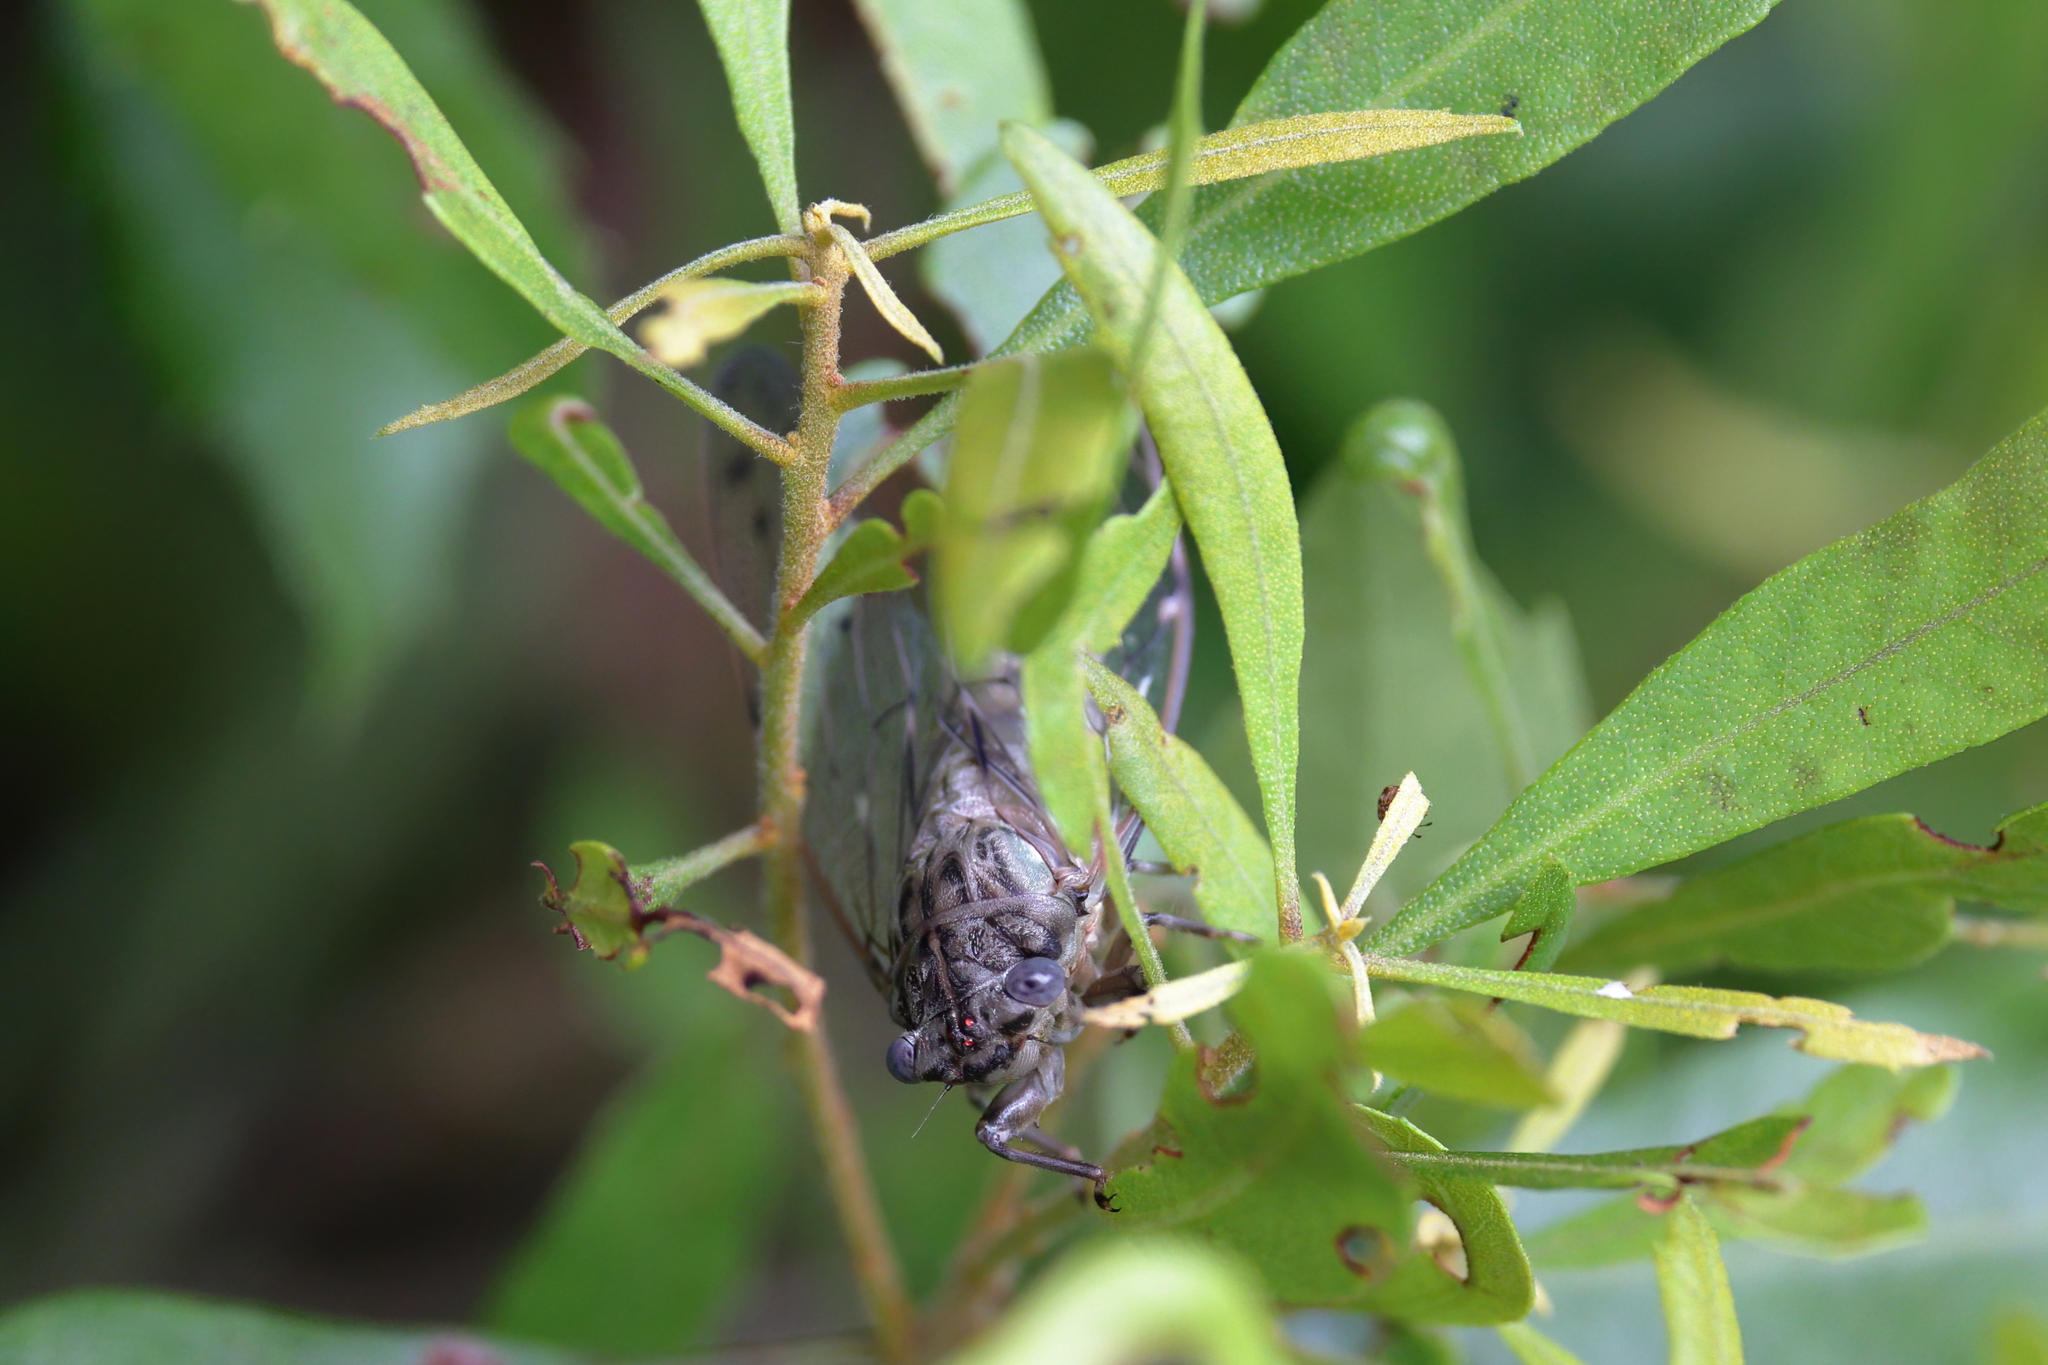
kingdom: Animalia
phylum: Arthropoda
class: Insecta
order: Hemiptera
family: Cicadidae
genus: Neocicada
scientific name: Neocicada hieroglyphica
